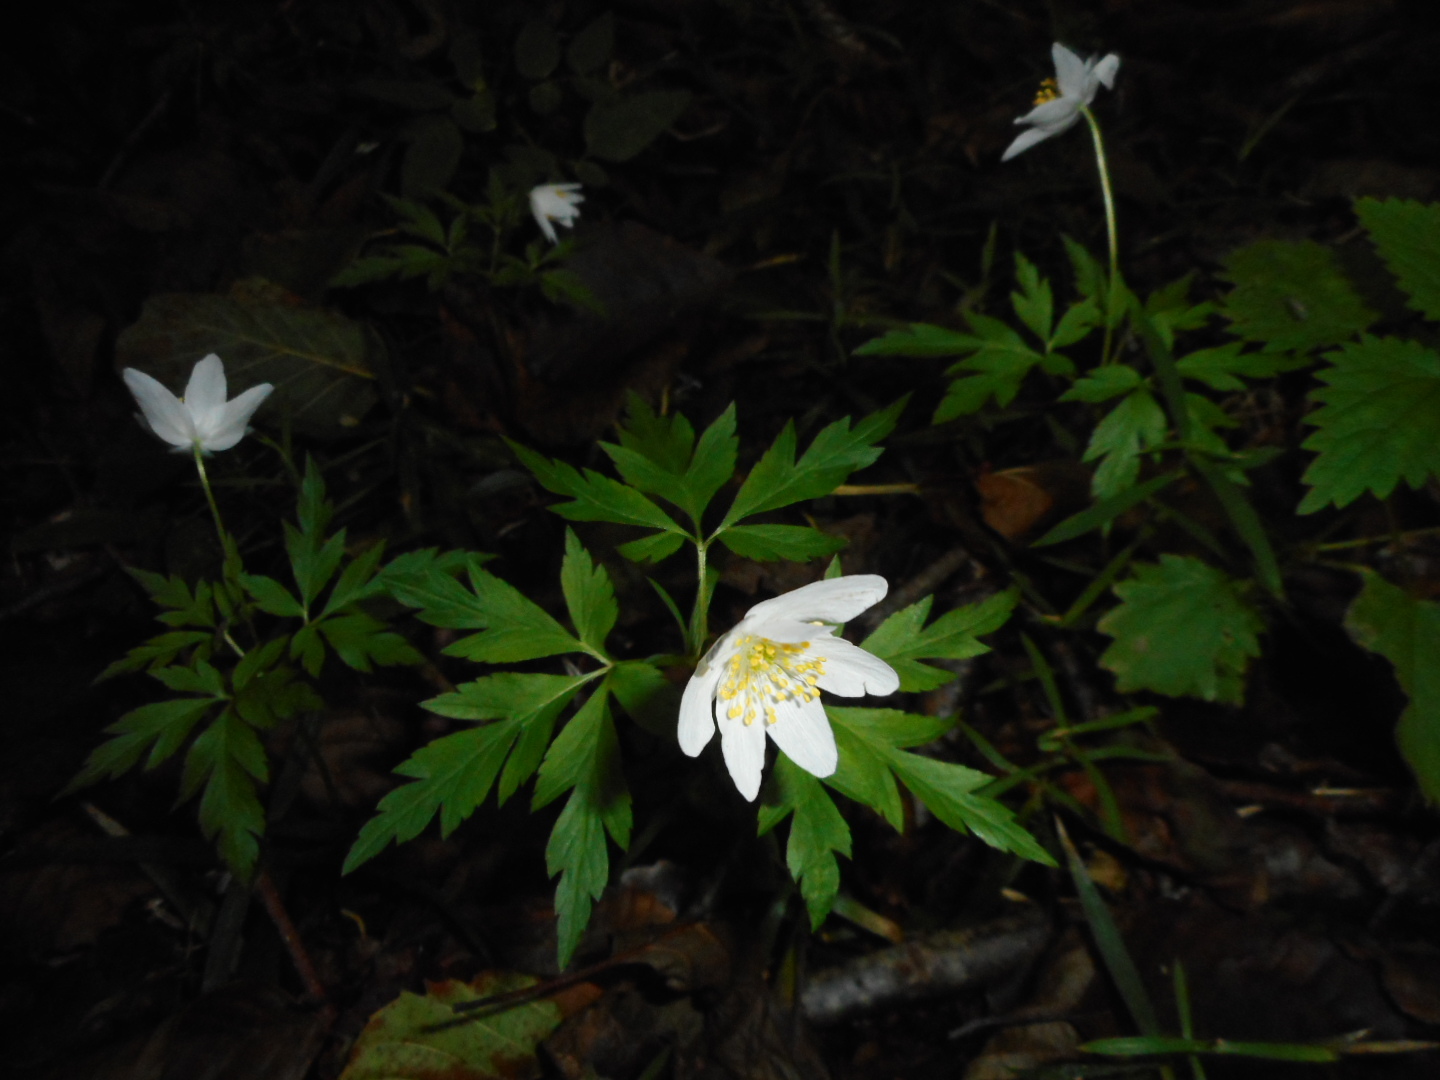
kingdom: Plantae
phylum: Tracheophyta
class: Magnoliopsida
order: Ranunculales
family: Ranunculaceae
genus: Anemone
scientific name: Anemone nemorosa
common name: Wood anemone
